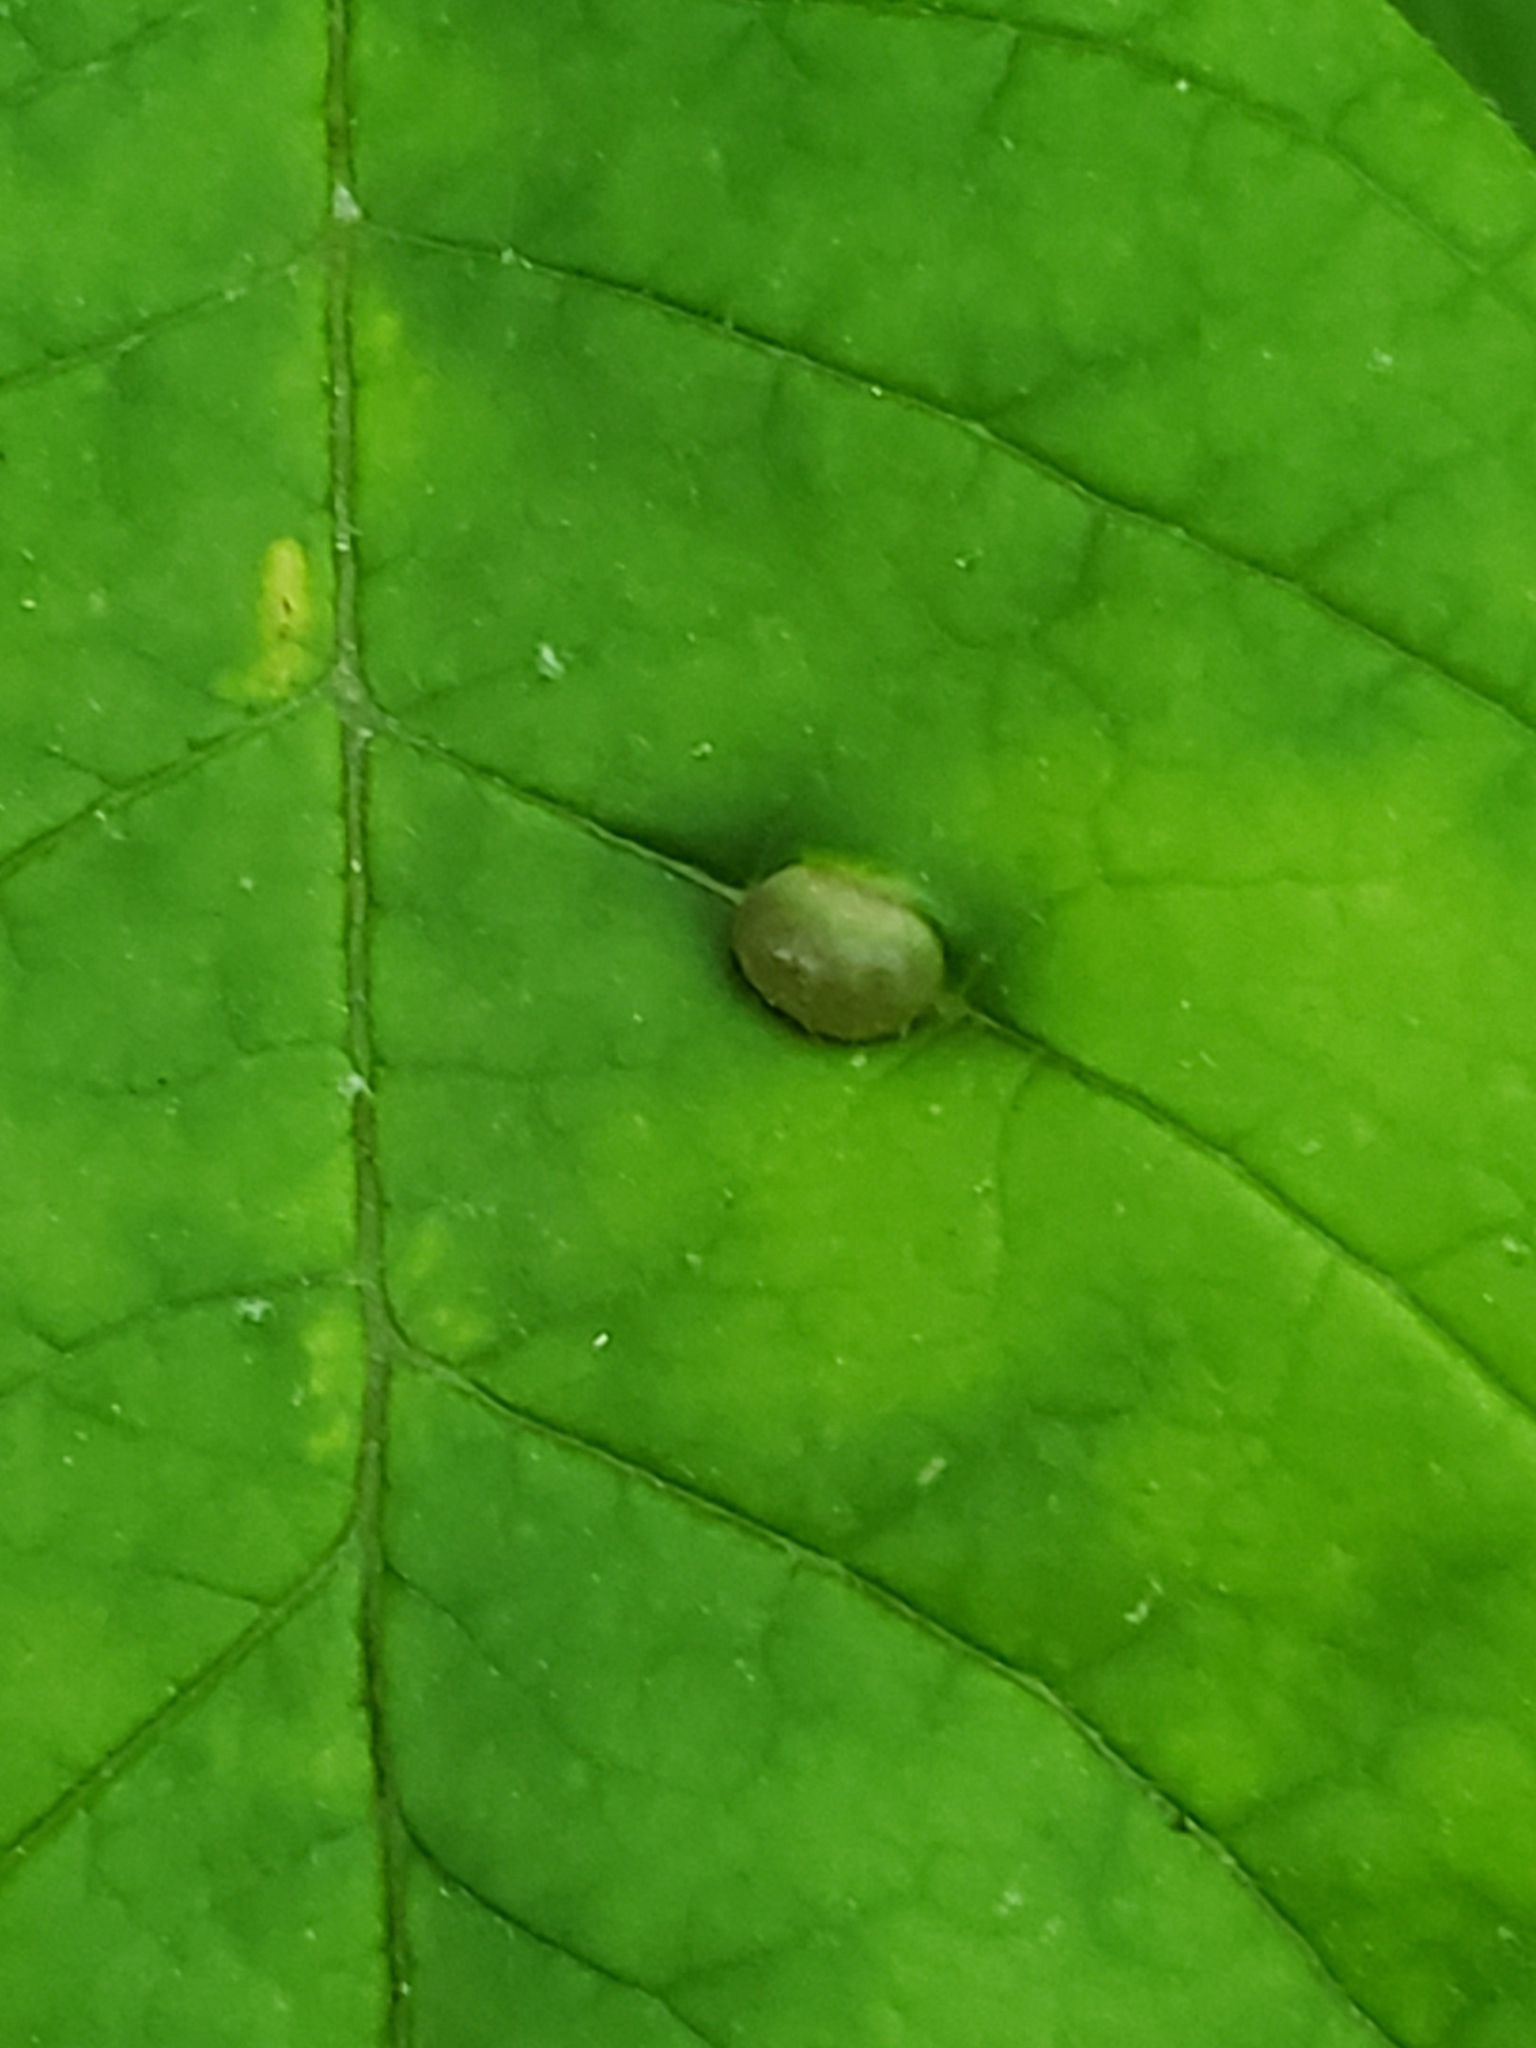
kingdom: Animalia
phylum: Arthropoda
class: Insecta
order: Diptera
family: Cecidomyiidae
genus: Dasineura
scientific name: Dasineura pellex
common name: Ash bullet gall midge
